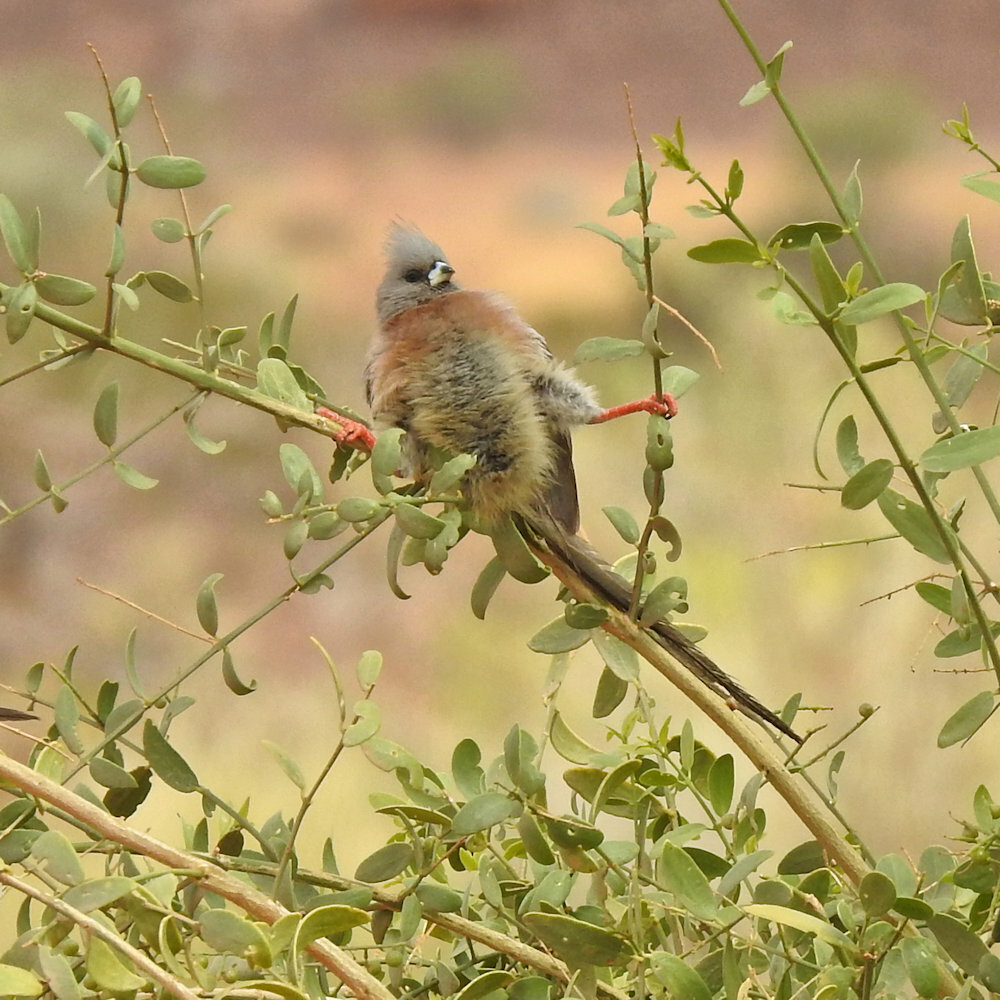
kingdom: Animalia
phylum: Chordata
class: Aves
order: Coliiformes
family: Coliidae
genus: Colius
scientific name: Colius colius
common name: White-backed mousebird
